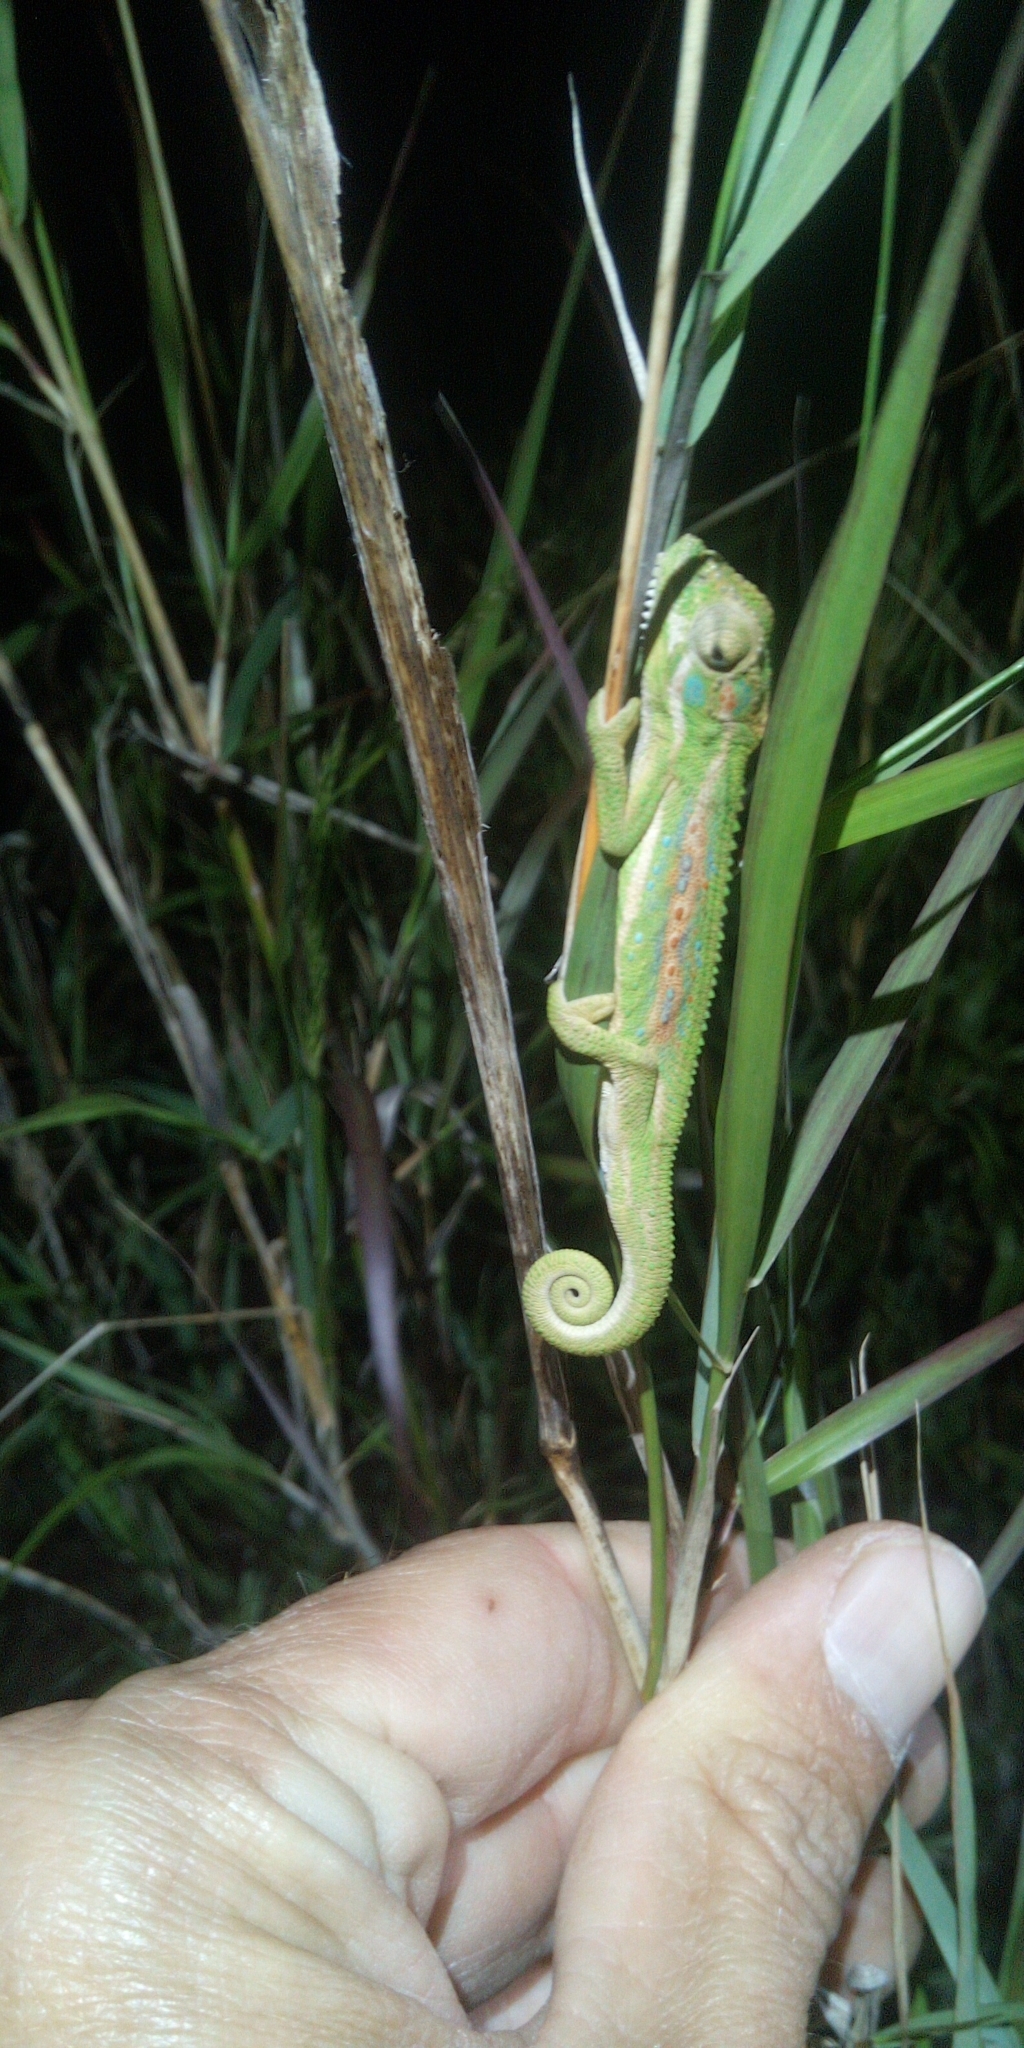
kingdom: Animalia
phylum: Chordata
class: Squamata
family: Chamaeleonidae
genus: Bradypodion
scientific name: Bradypodion pumilum
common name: Cape dwarf chameleon
